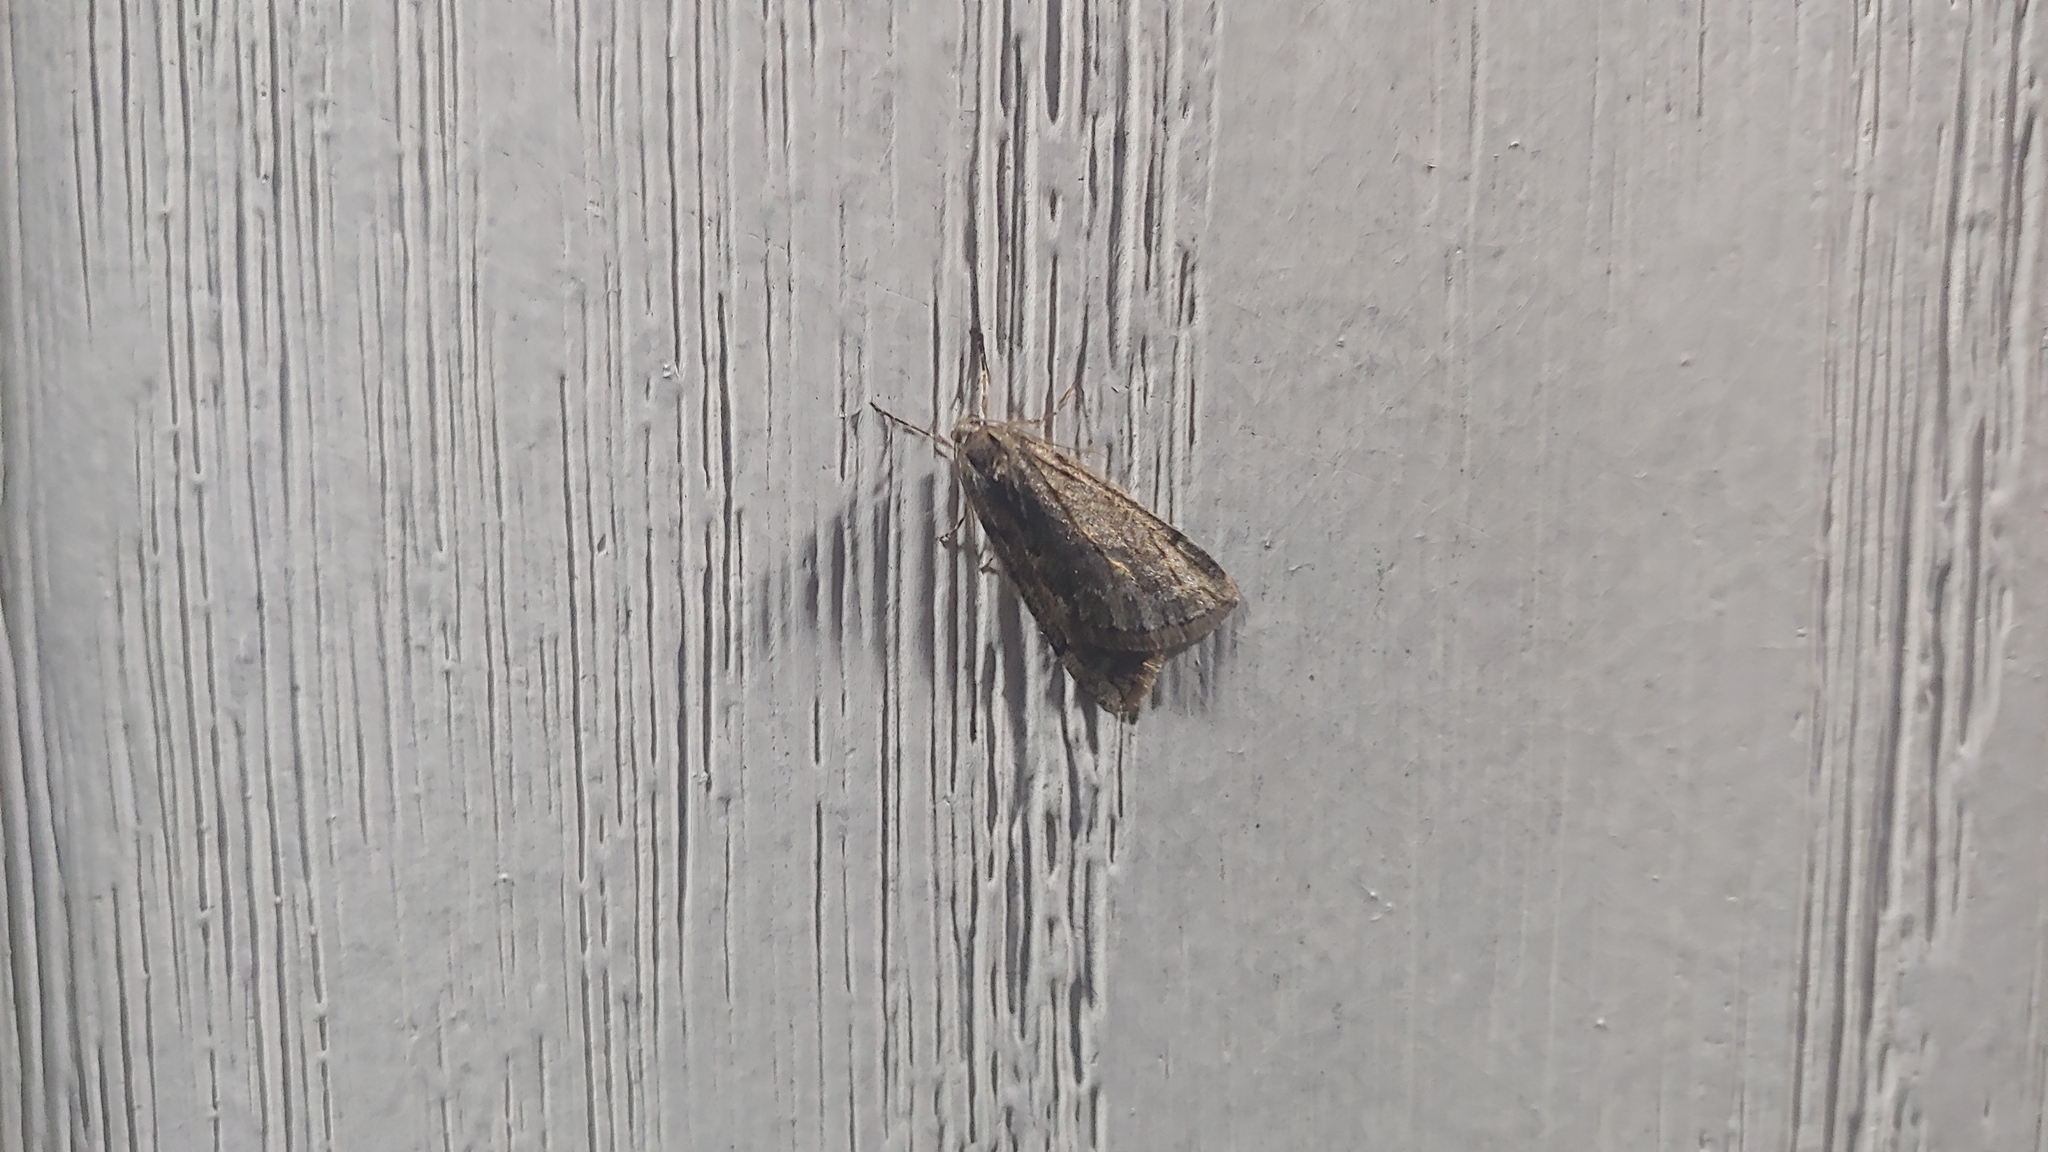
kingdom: Animalia
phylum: Arthropoda
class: Insecta
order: Lepidoptera
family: Geometridae
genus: Paleacrita
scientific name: Paleacrita vernata
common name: Spring cankerworm
